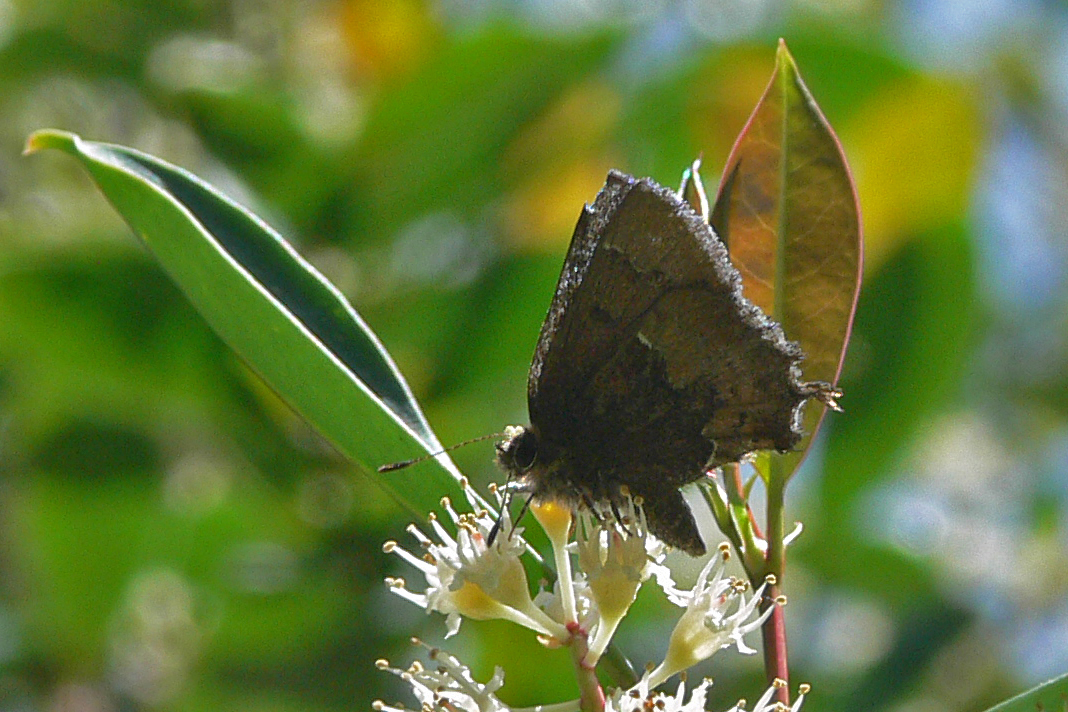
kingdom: Animalia
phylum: Arthropoda
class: Insecta
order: Lepidoptera
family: Lycaenidae
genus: Incisalia
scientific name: Incisalia henrici
